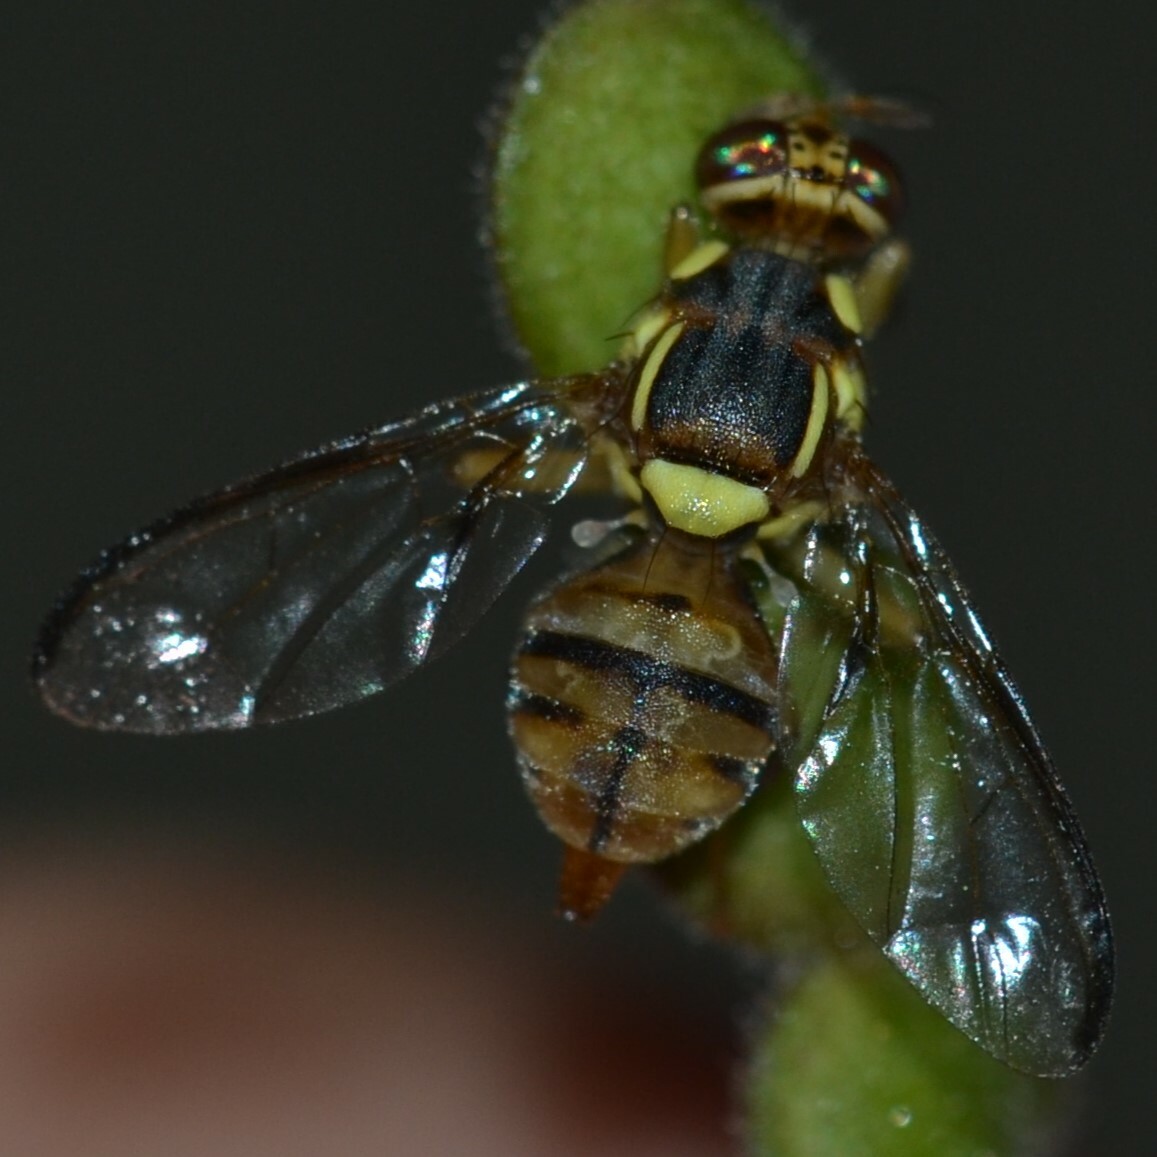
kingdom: Animalia
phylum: Arthropoda
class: Insecta
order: Diptera
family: Tephritidae
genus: Bactrocera
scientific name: Bactrocera dorsalis
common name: Oriental fruit fly
